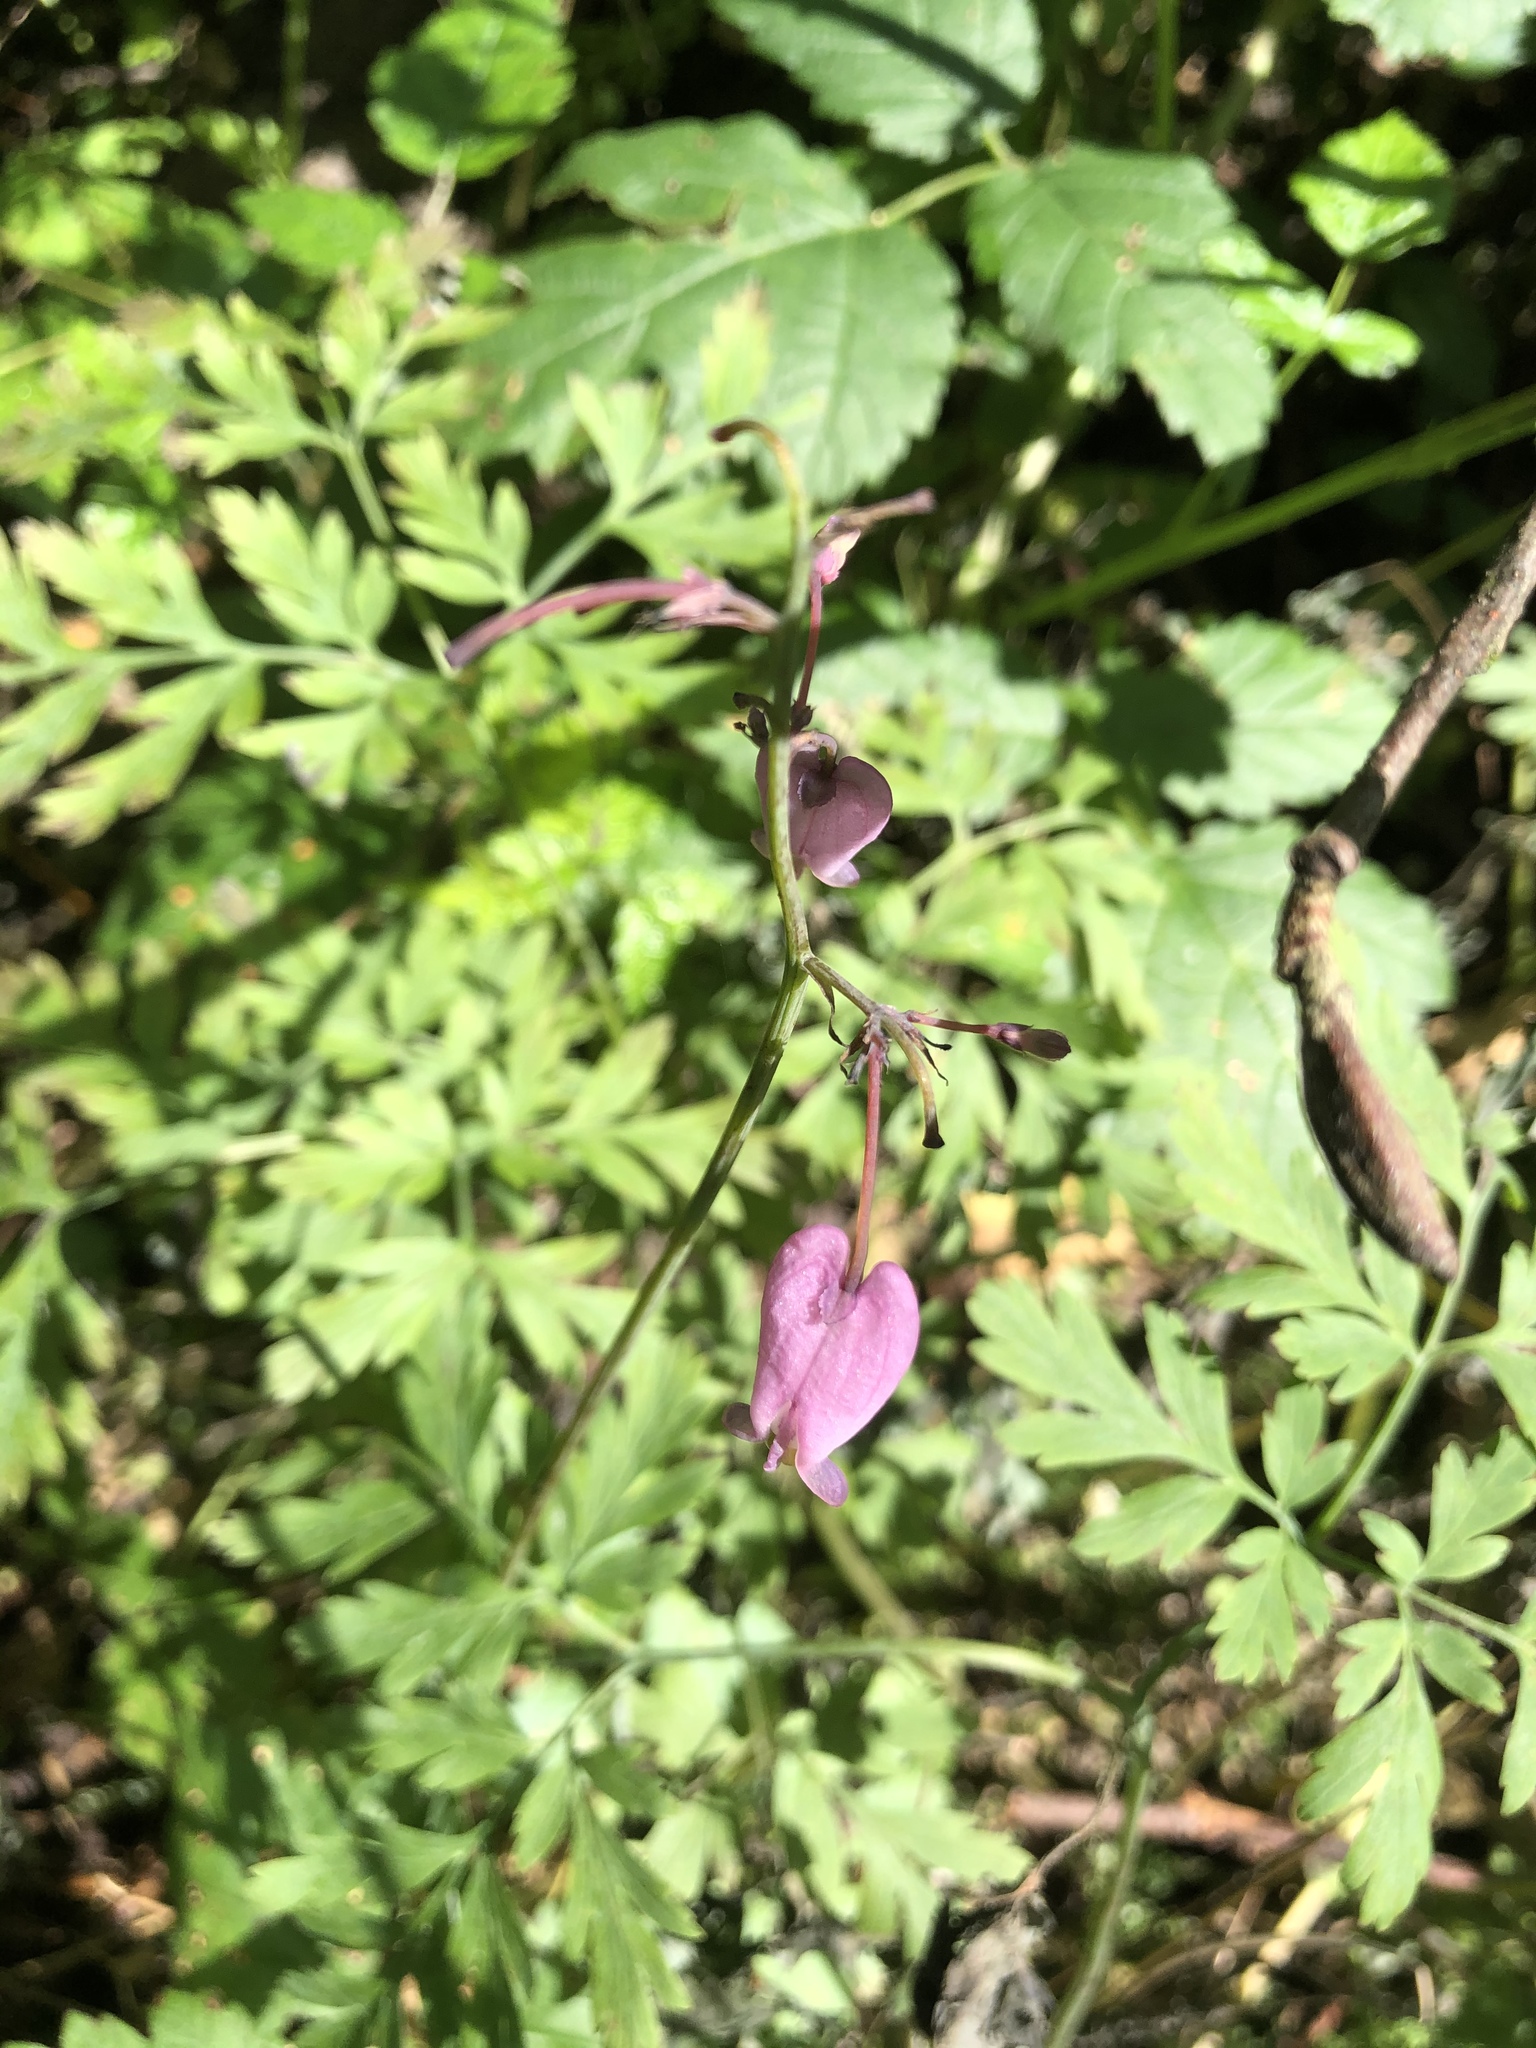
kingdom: Plantae
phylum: Tracheophyta
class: Magnoliopsida
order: Ranunculales
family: Papaveraceae
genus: Dicentra
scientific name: Dicentra formosa
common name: Bleeding-heart
